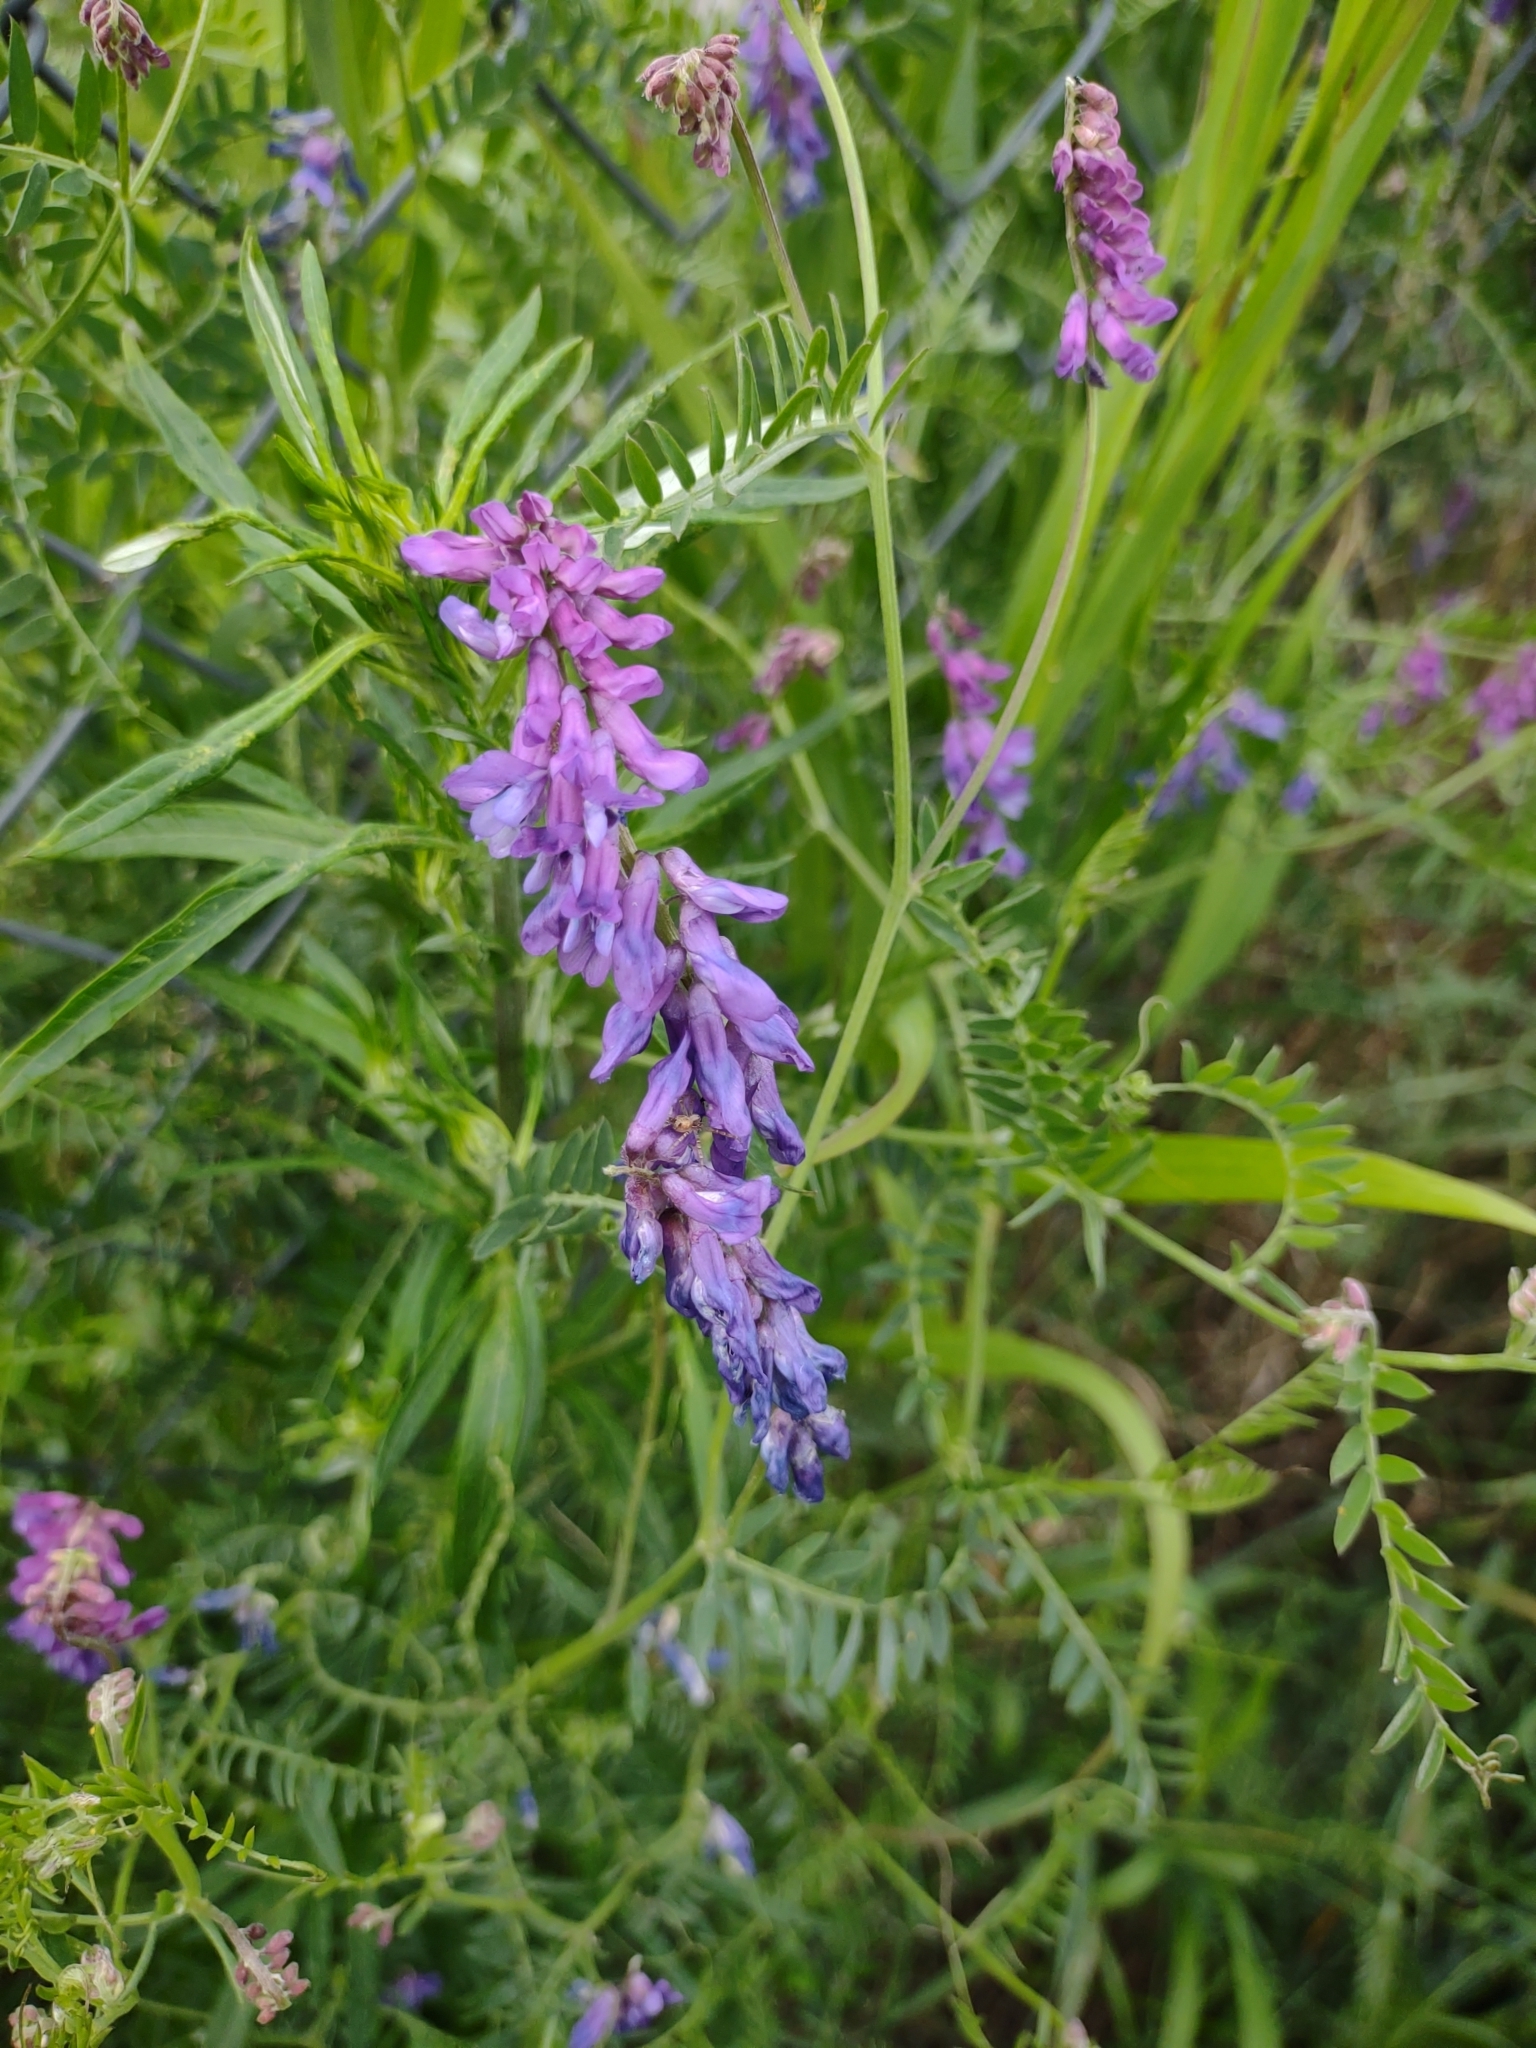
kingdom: Plantae
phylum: Tracheophyta
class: Magnoliopsida
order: Fabales
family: Fabaceae
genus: Vicia
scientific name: Vicia cracca
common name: Bird vetch
